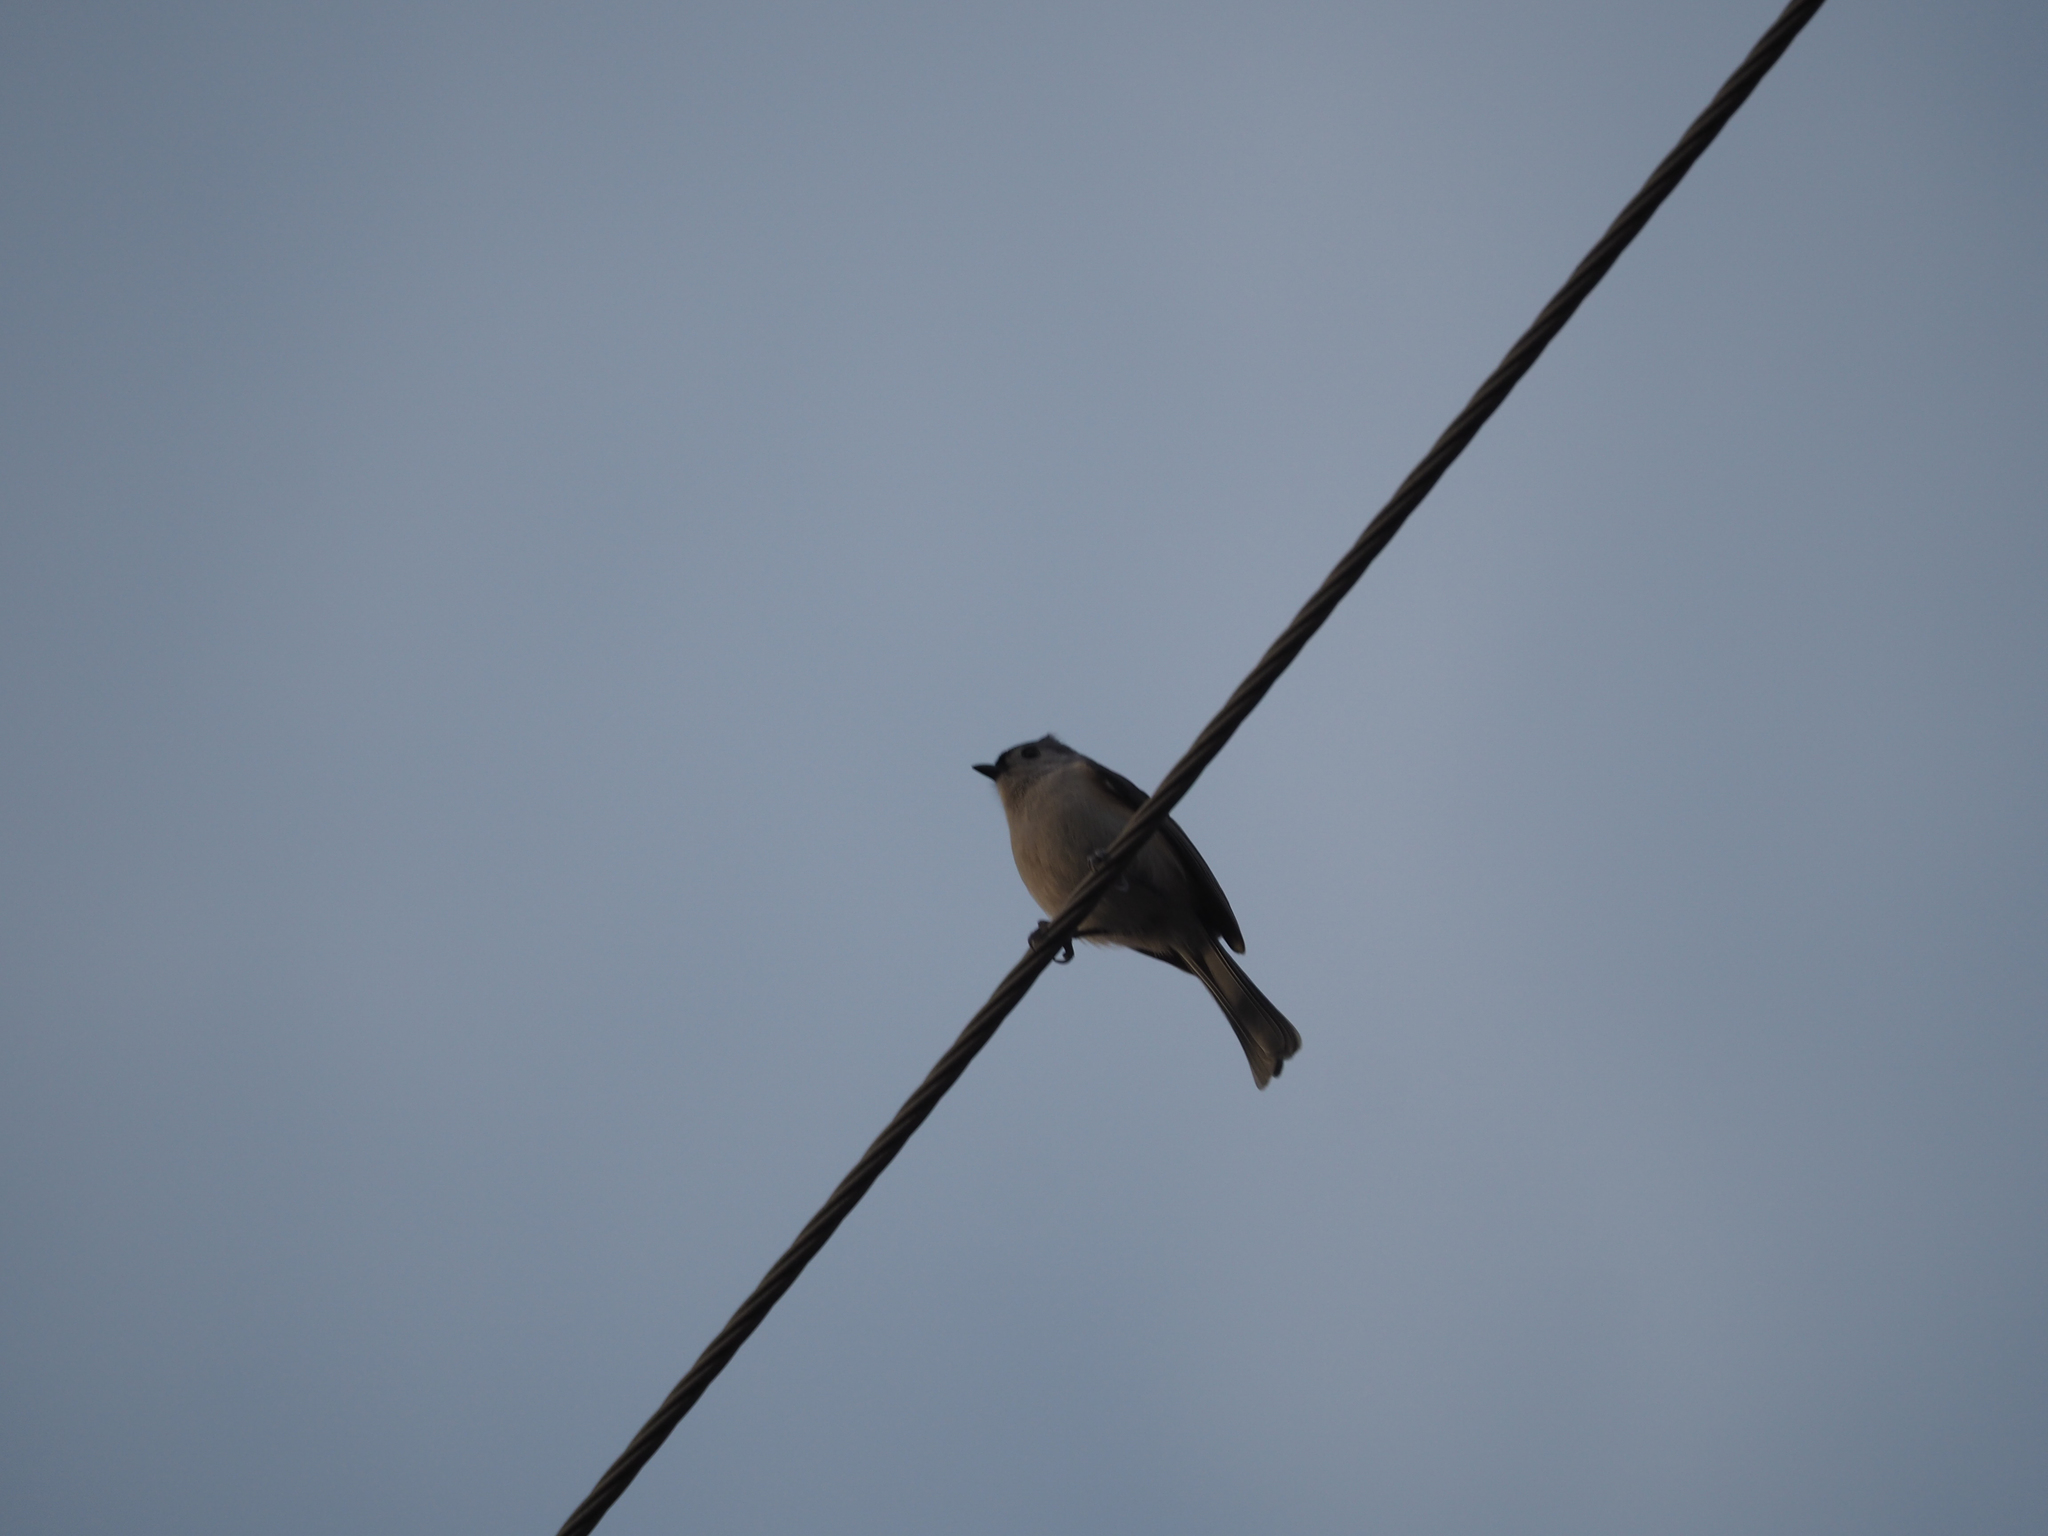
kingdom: Animalia
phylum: Chordata
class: Aves
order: Passeriformes
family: Paridae
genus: Baeolophus
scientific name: Baeolophus bicolor
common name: Tufted titmouse
